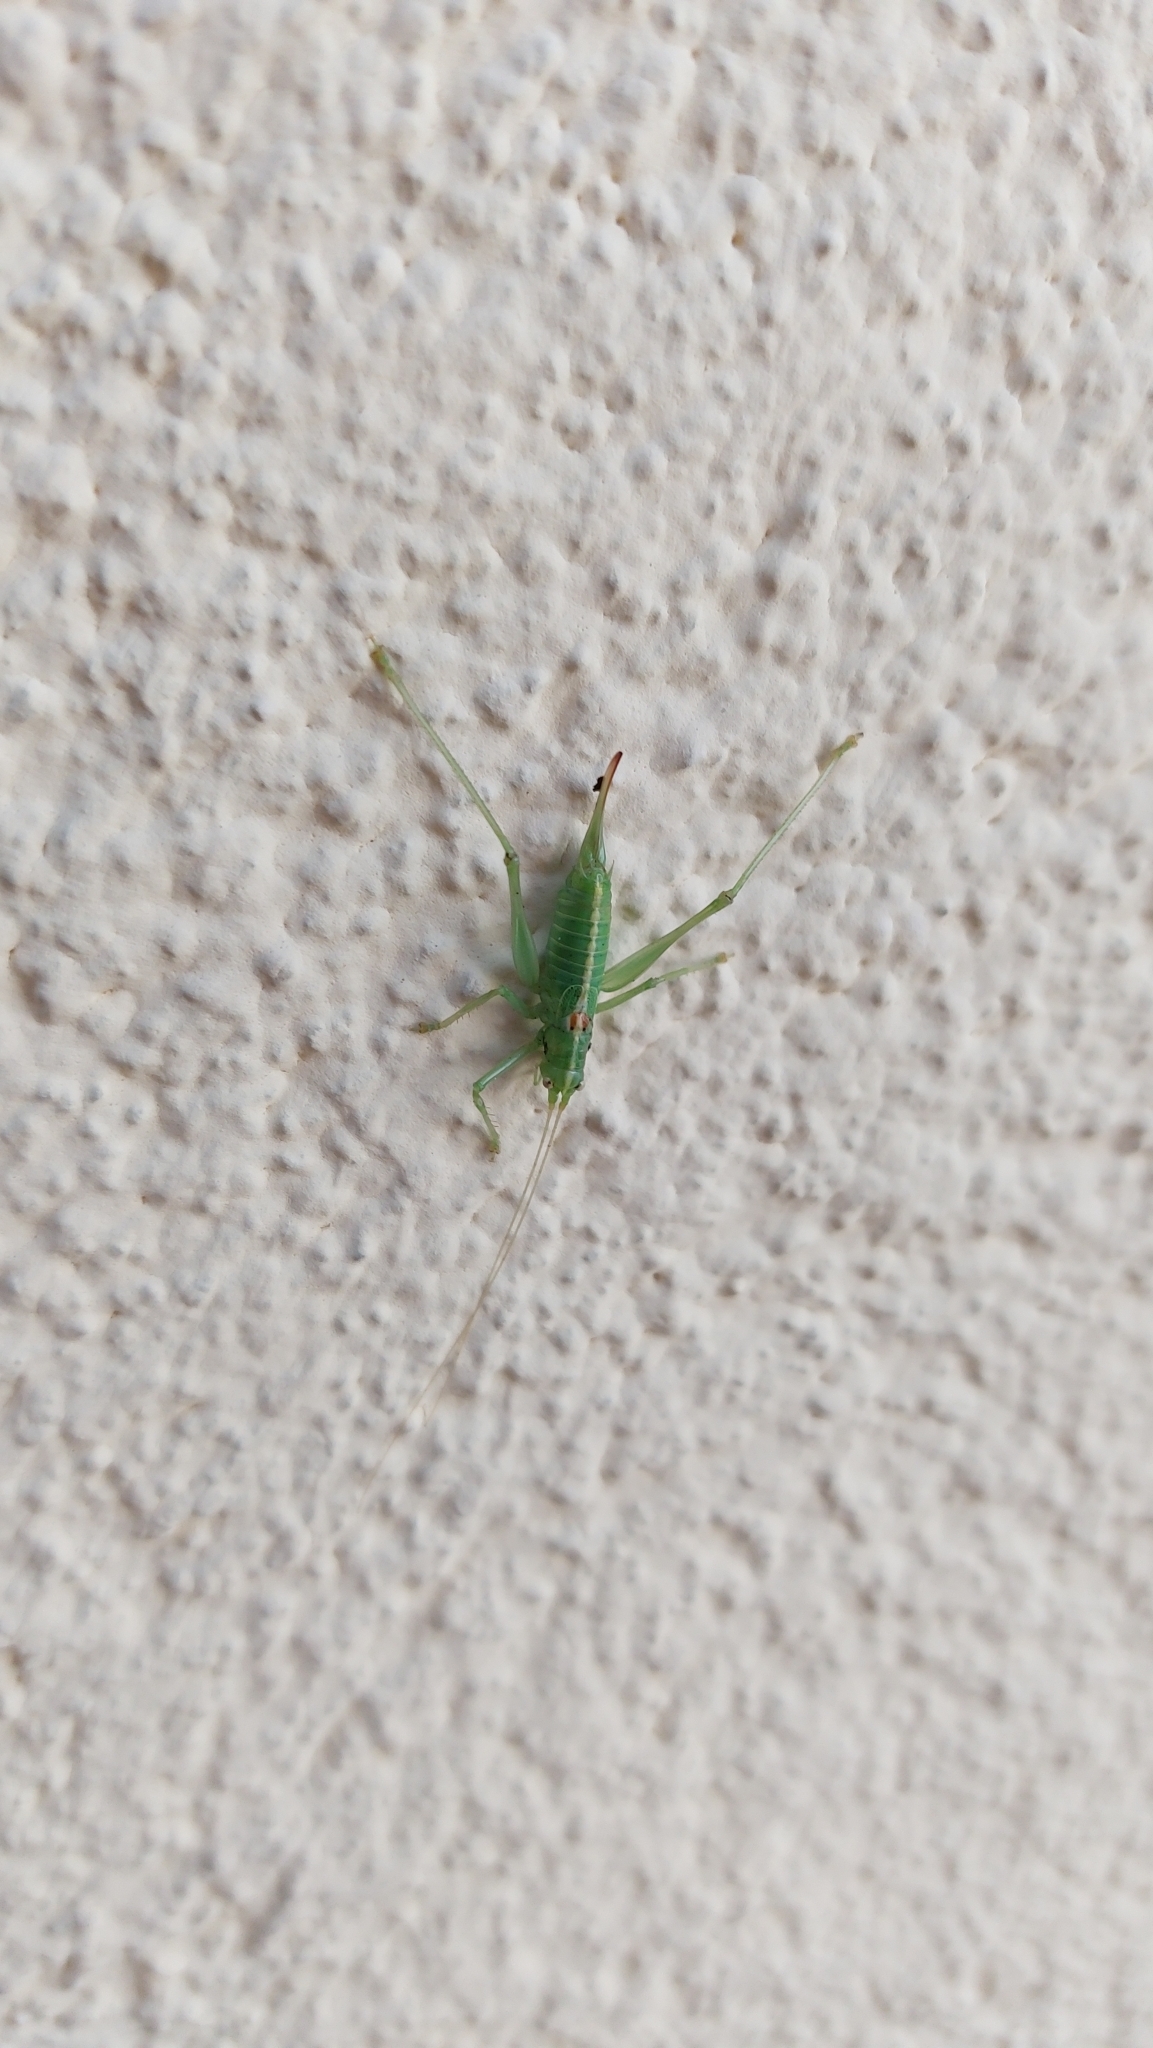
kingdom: Animalia
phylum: Arthropoda
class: Insecta
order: Orthoptera
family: Tettigoniidae
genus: Meconema
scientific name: Meconema meridionale
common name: Southern oak bush-cricket
